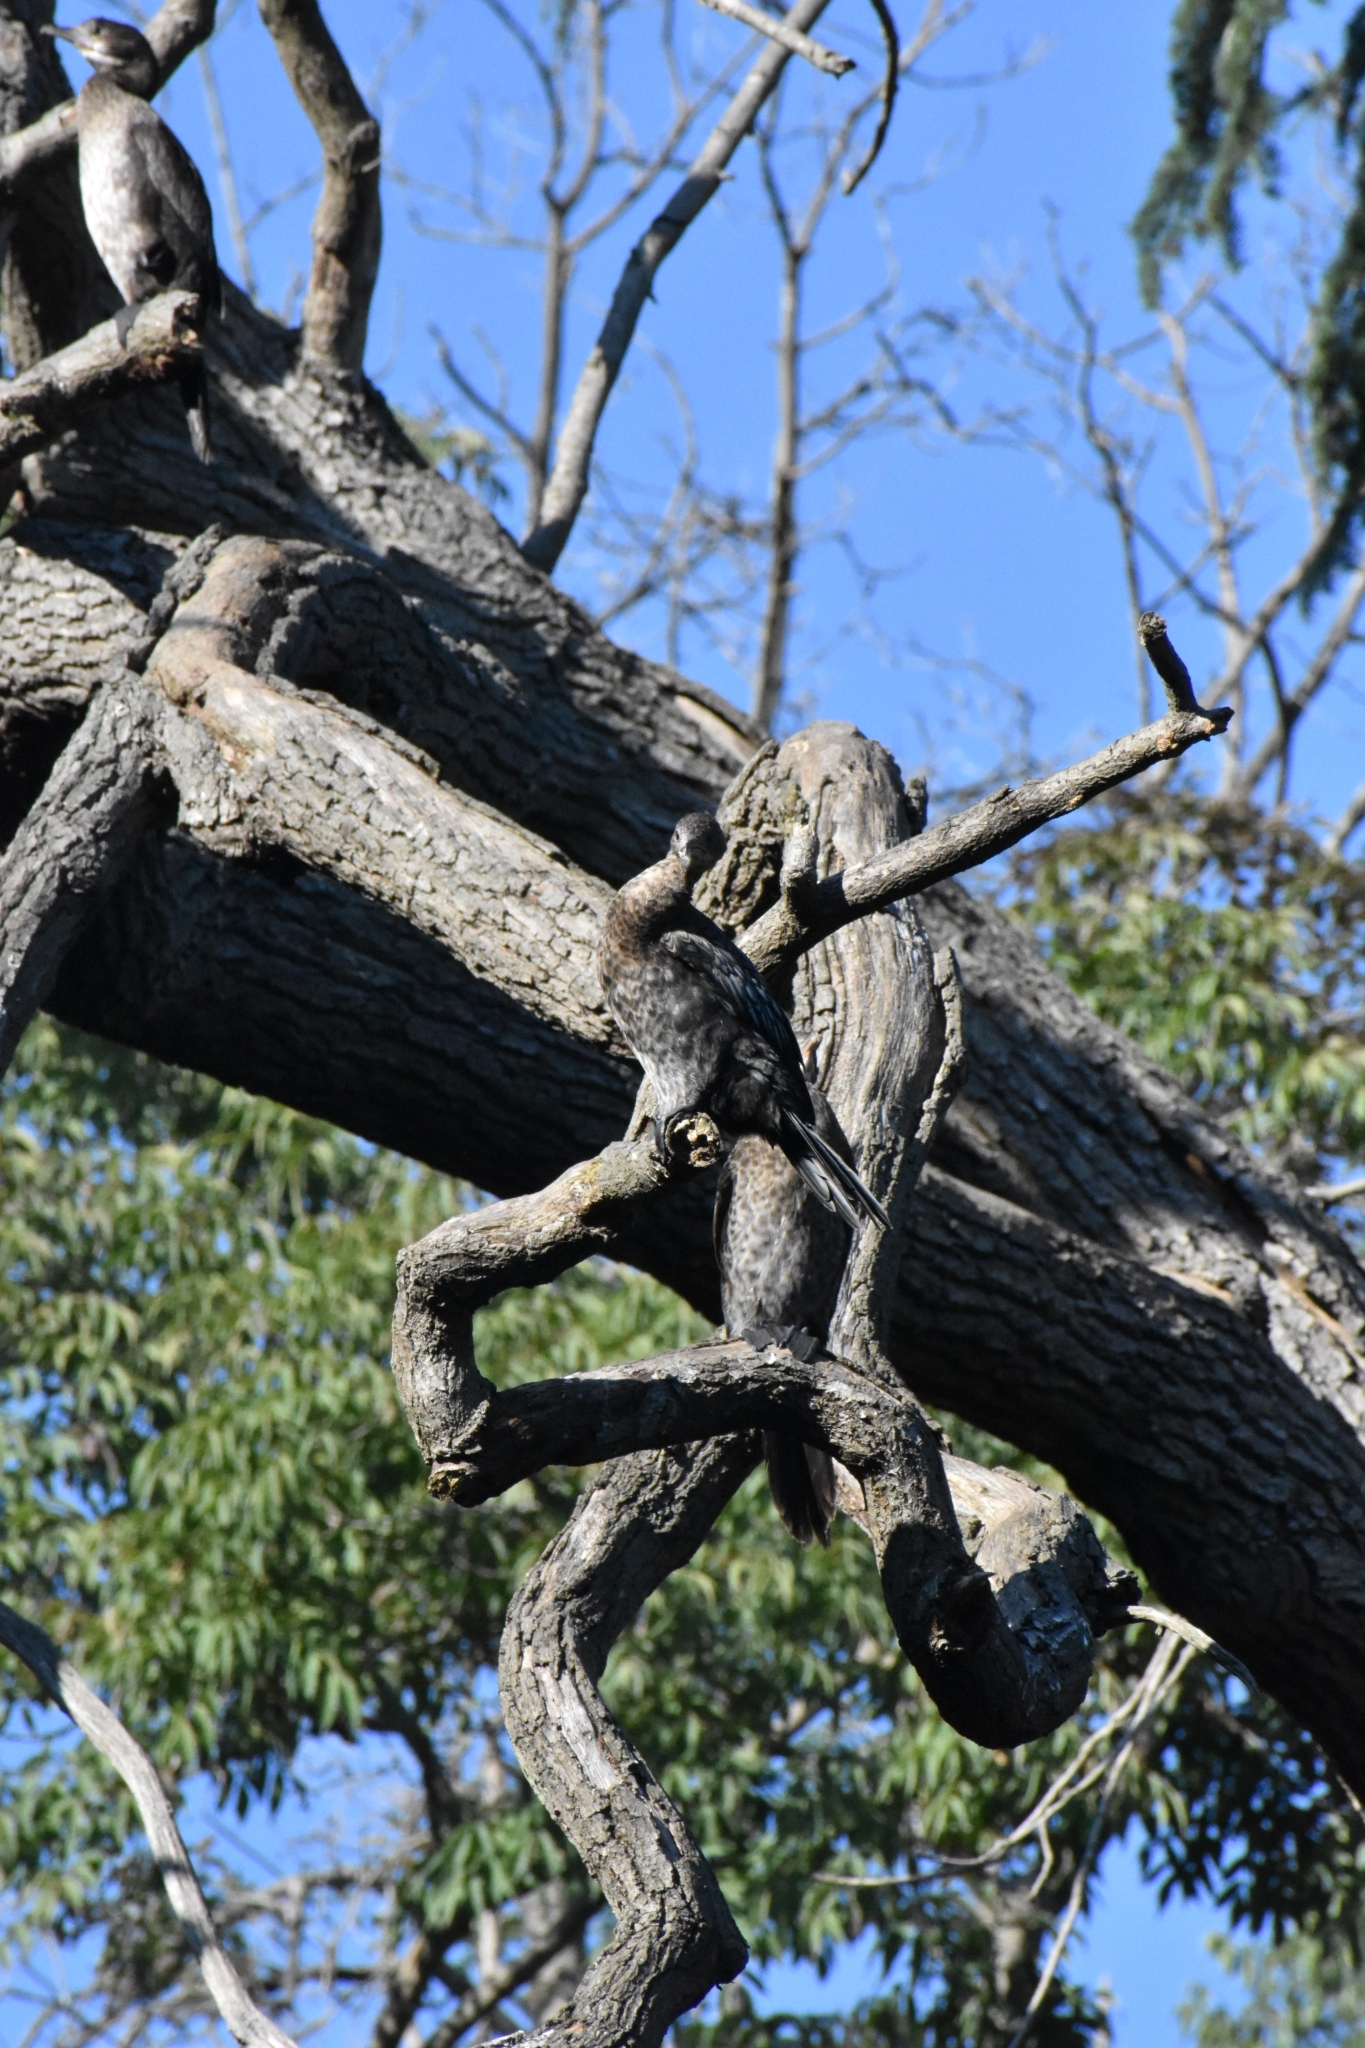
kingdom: Animalia
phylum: Chordata
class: Aves
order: Suliformes
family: Phalacrocoracidae
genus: Microcarbo
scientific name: Microcarbo pygmaeus
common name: Pygmy cormorant
